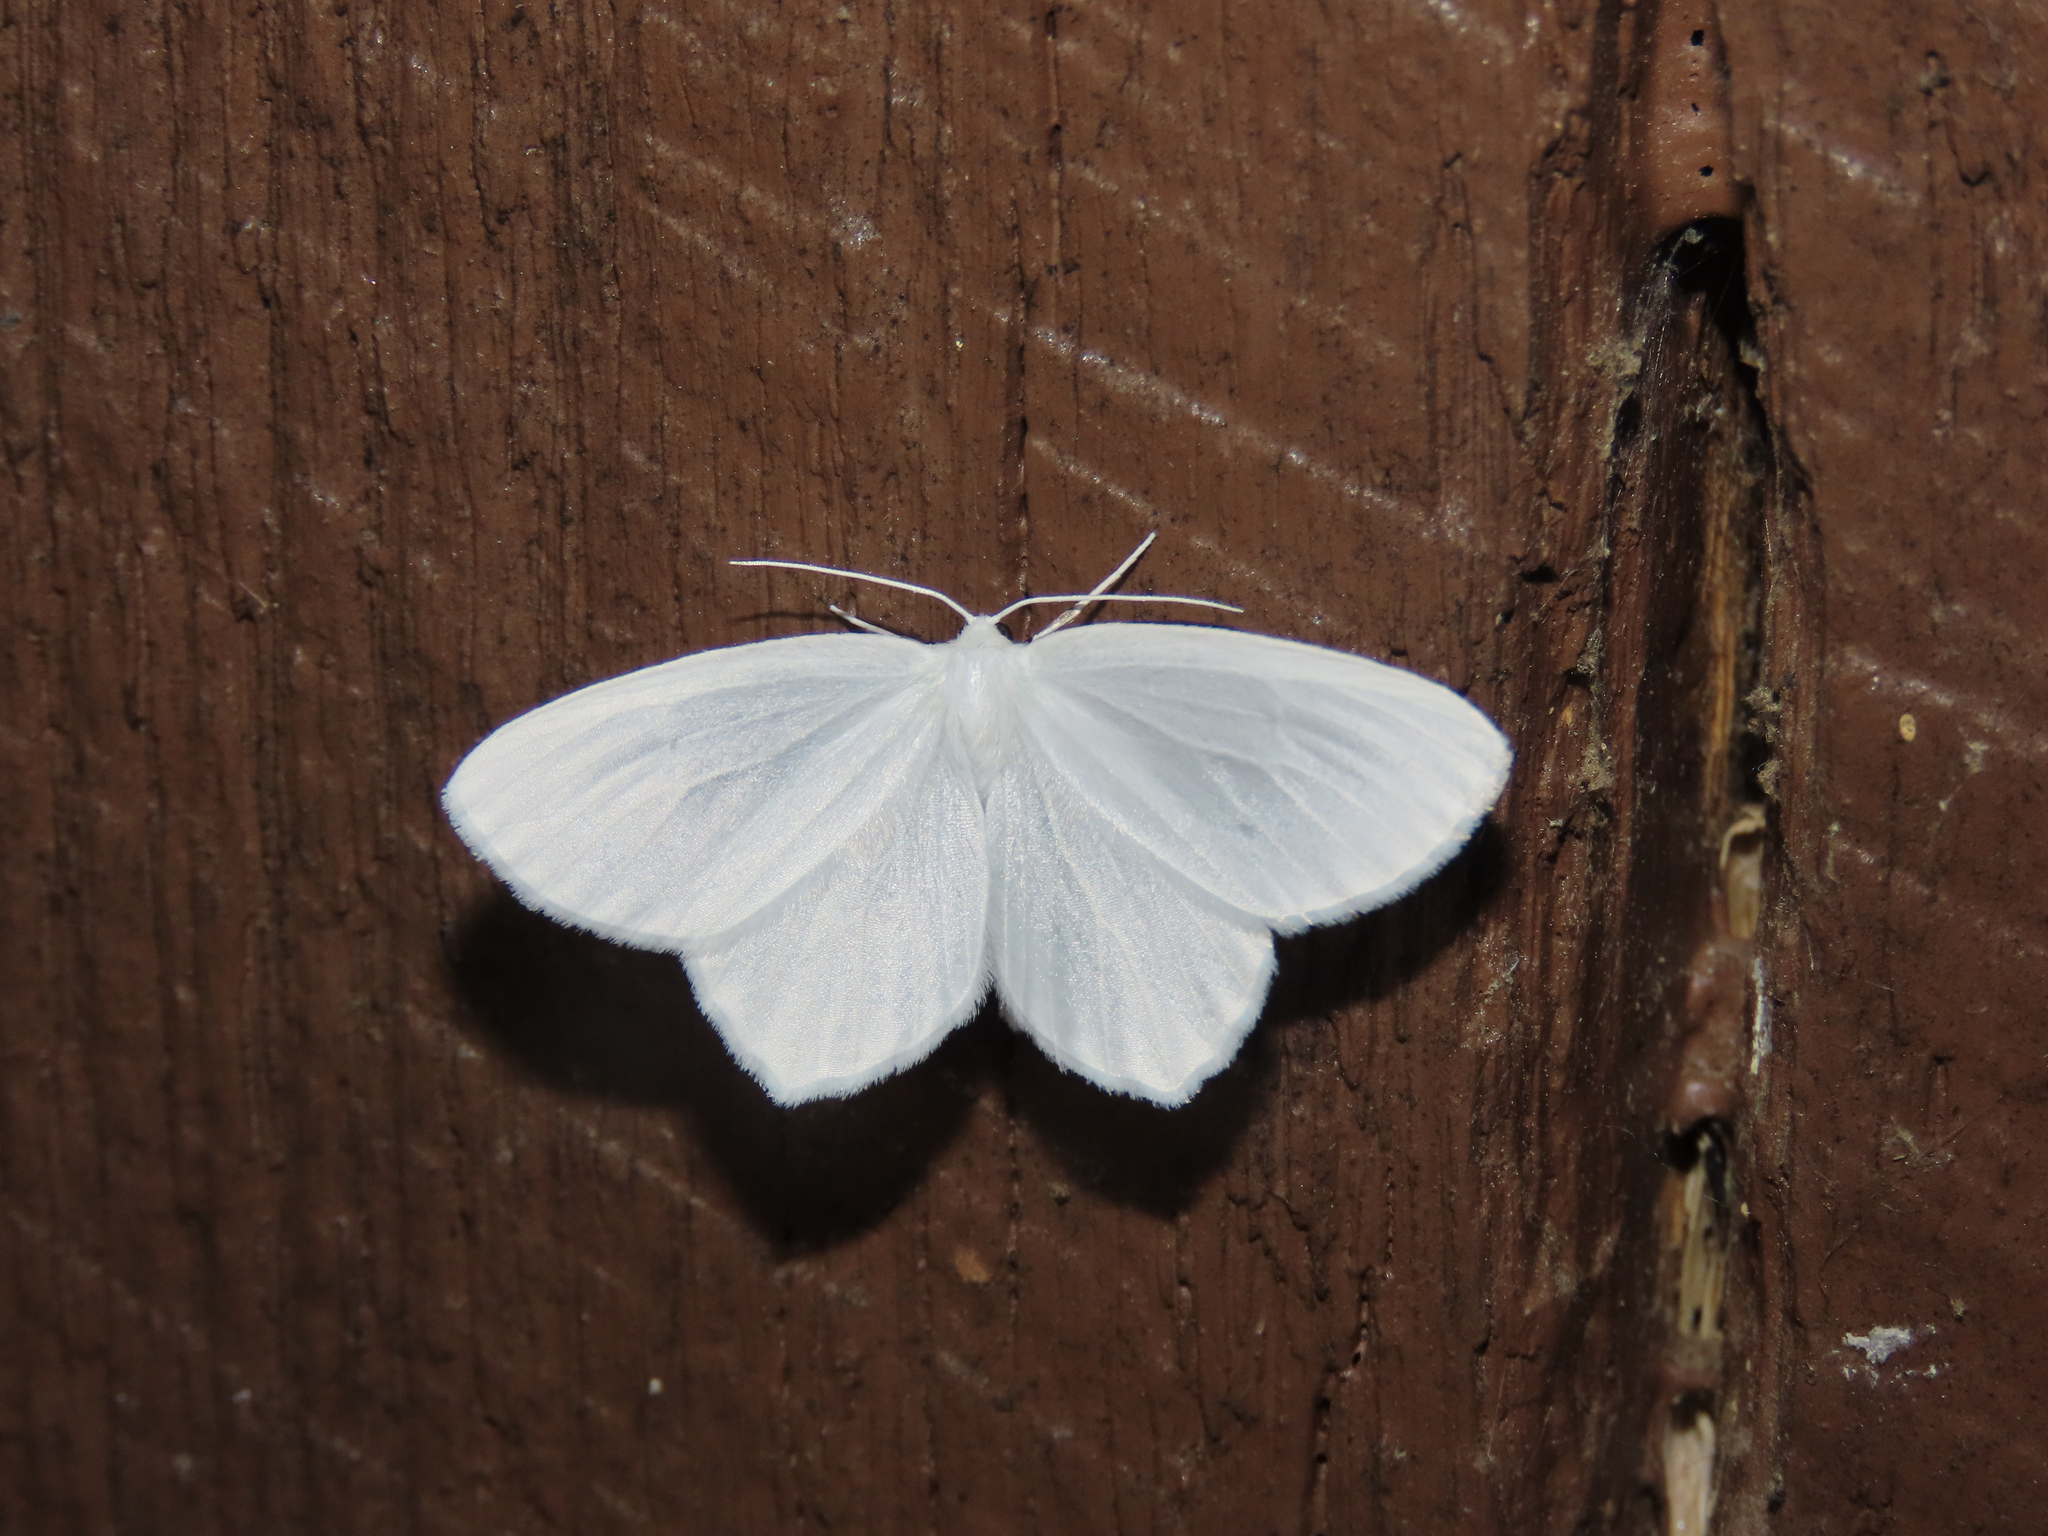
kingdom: Animalia
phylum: Arthropoda
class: Insecta
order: Lepidoptera
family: Geometridae
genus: Eugonobapta
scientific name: Eugonobapta nivosaria
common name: Snowy geometer
